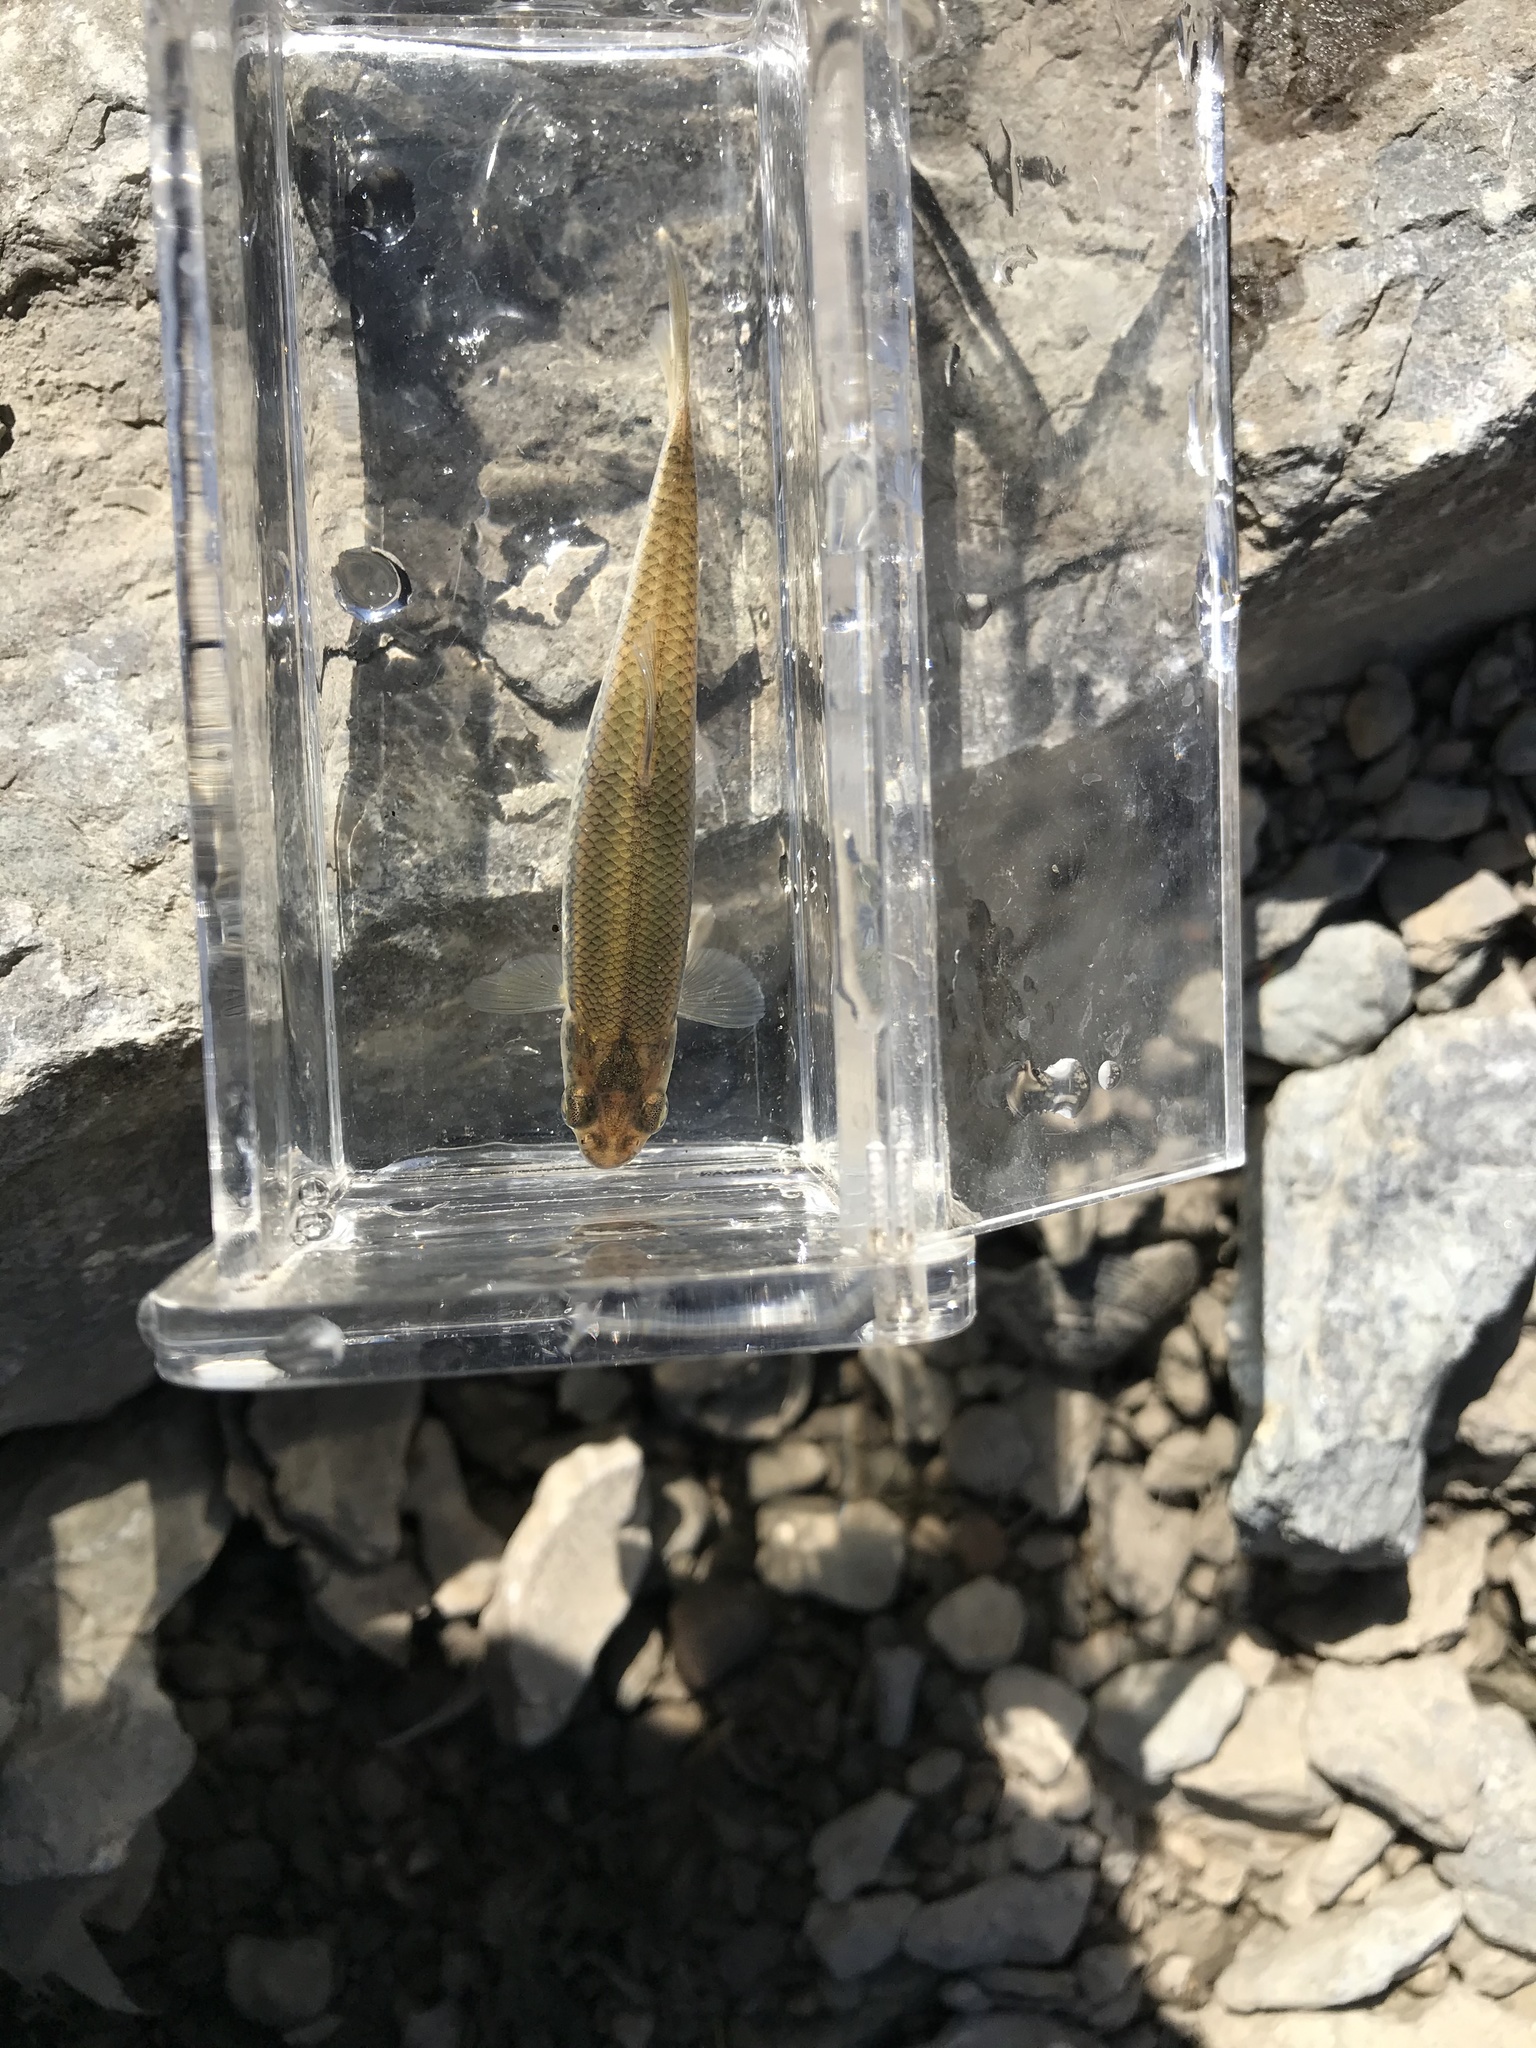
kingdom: Animalia
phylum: Chordata
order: Cypriniformes
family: Cyprinidae
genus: Pimephales
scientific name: Pimephales notatus
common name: Bluntnose minnow
